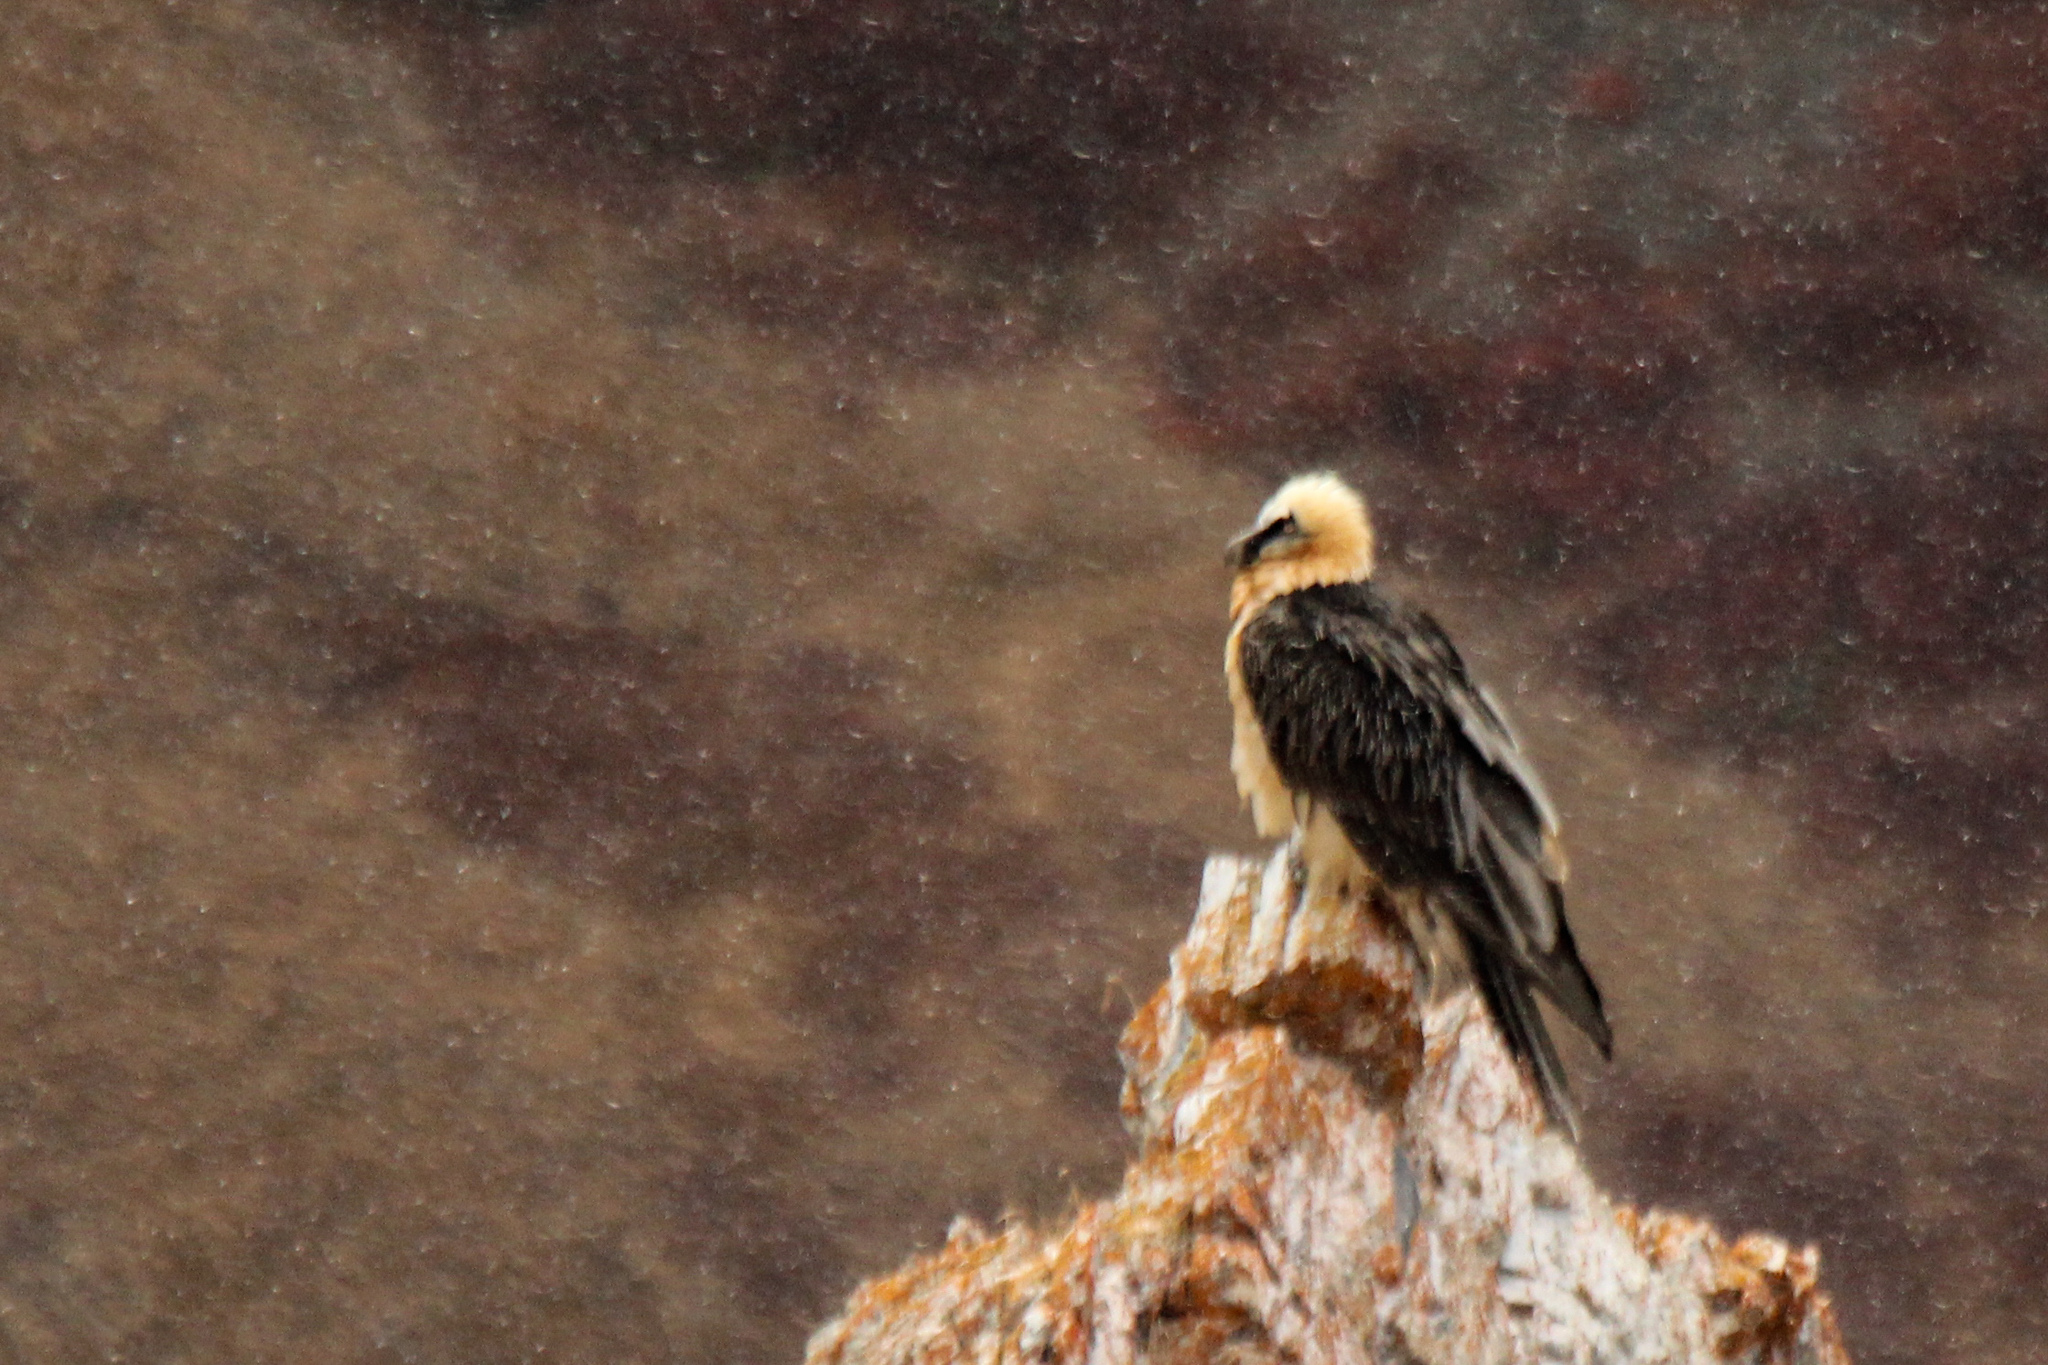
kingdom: Animalia
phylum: Chordata
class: Aves
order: Accipitriformes
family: Accipitridae
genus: Gypaetus
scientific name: Gypaetus barbatus
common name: Bearded vulture
